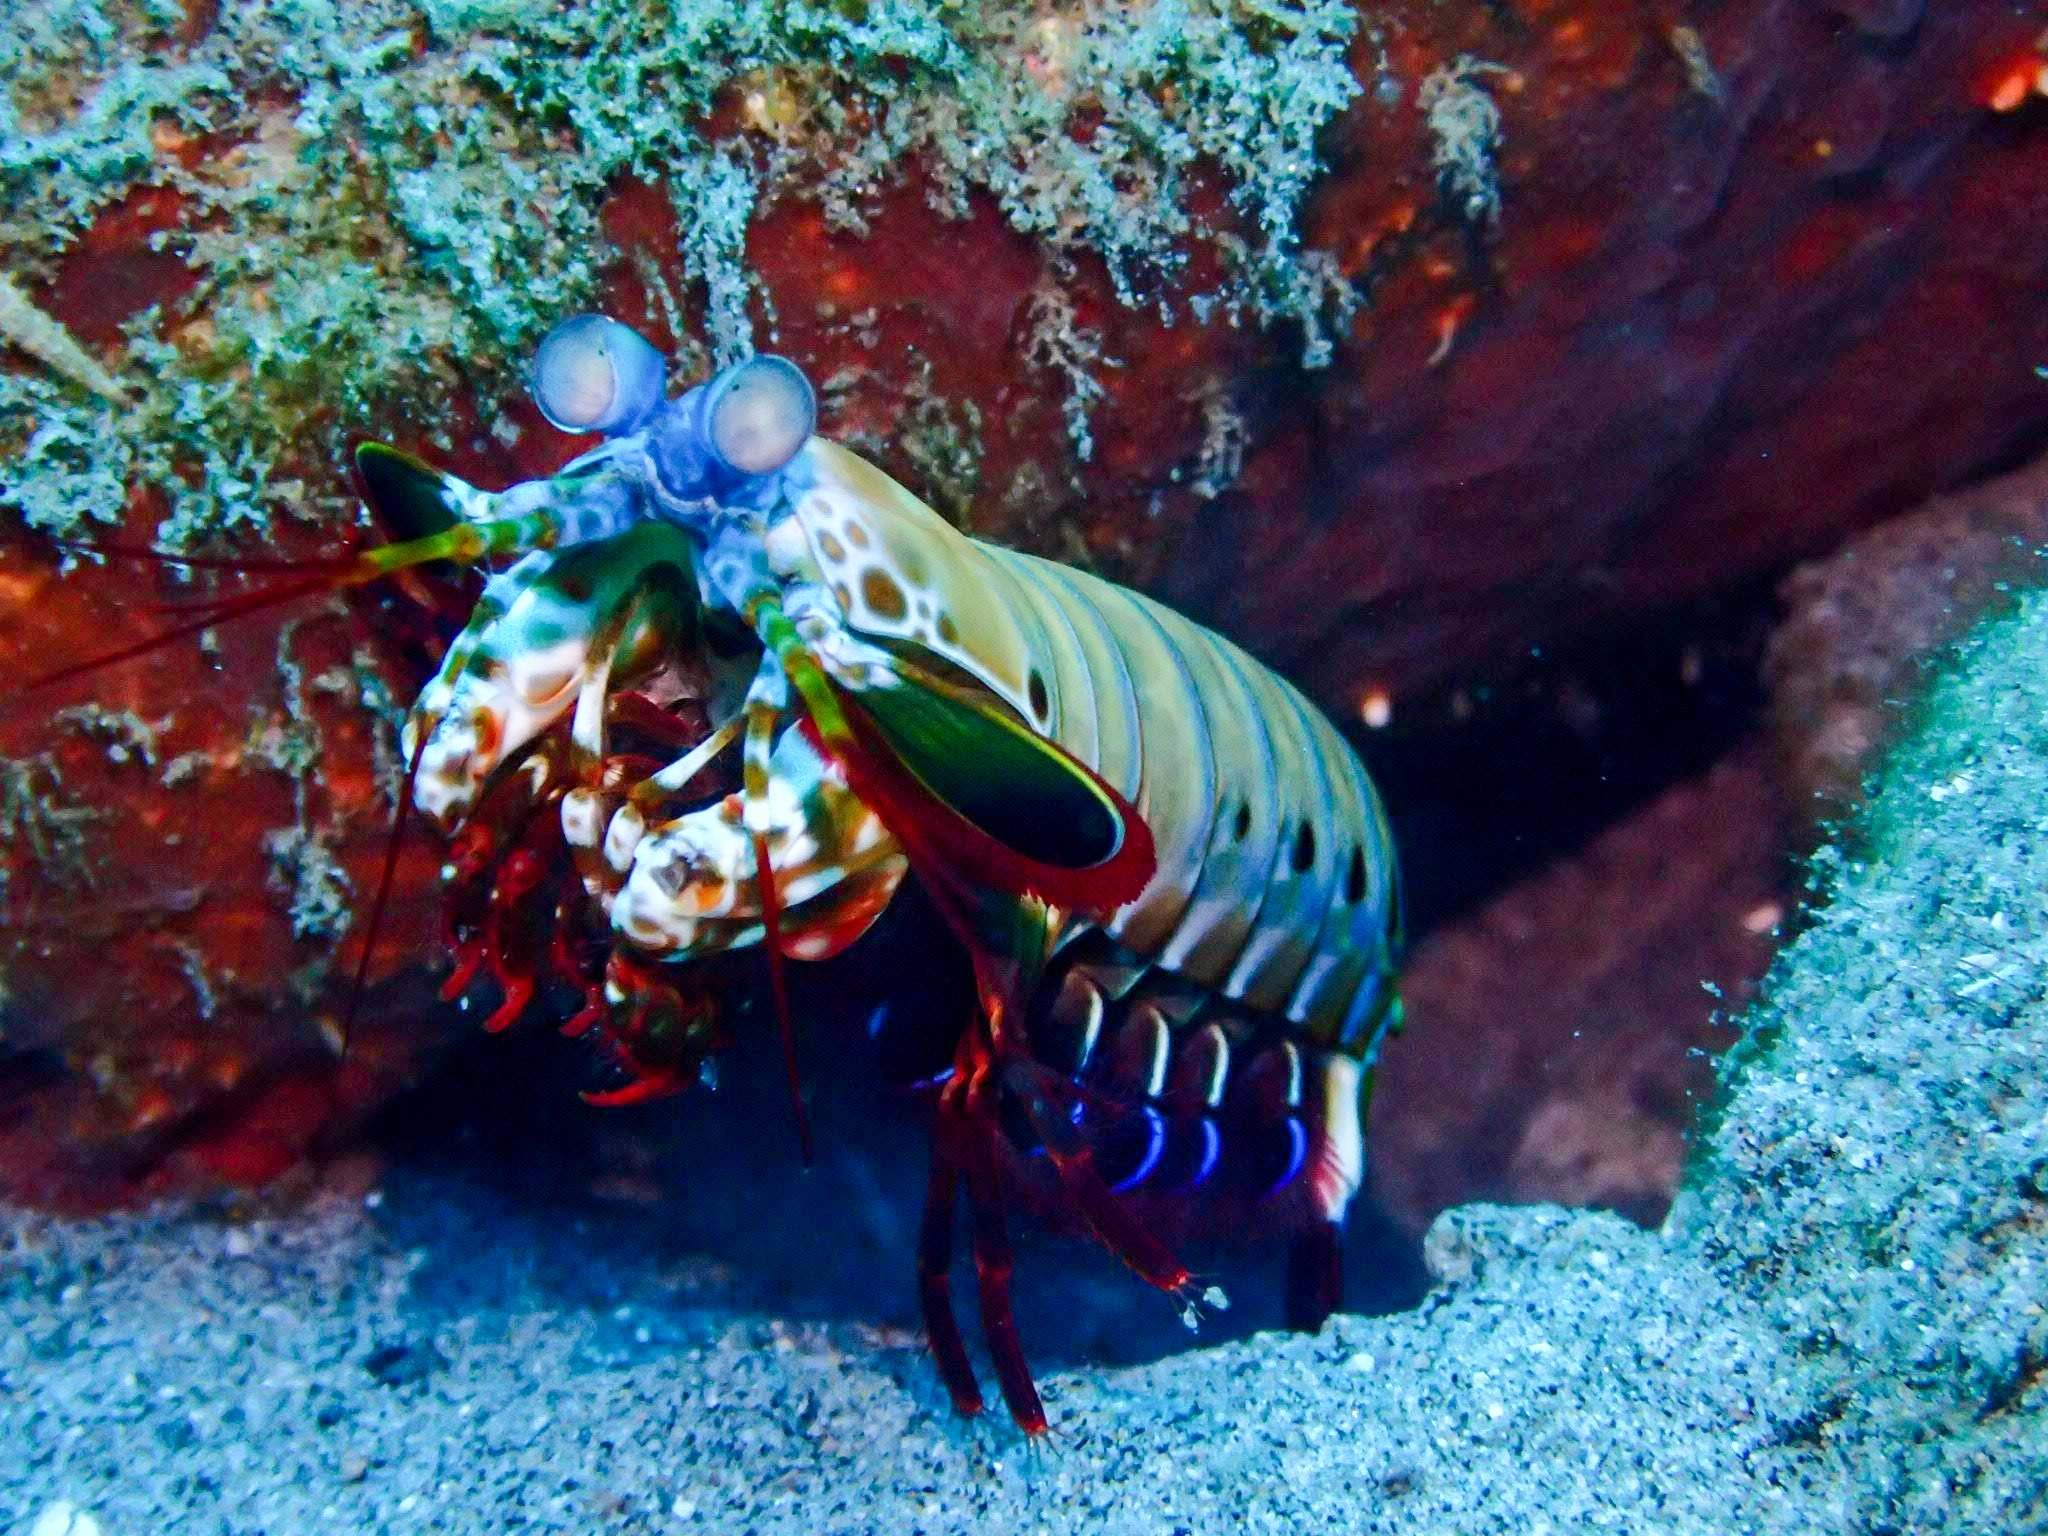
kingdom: Animalia
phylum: Arthropoda
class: Malacostraca
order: Stomatopoda
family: Odontodactylidae
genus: Odontodactylus
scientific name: Odontodactylus scyllarus
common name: Peacock mantis shrimp
